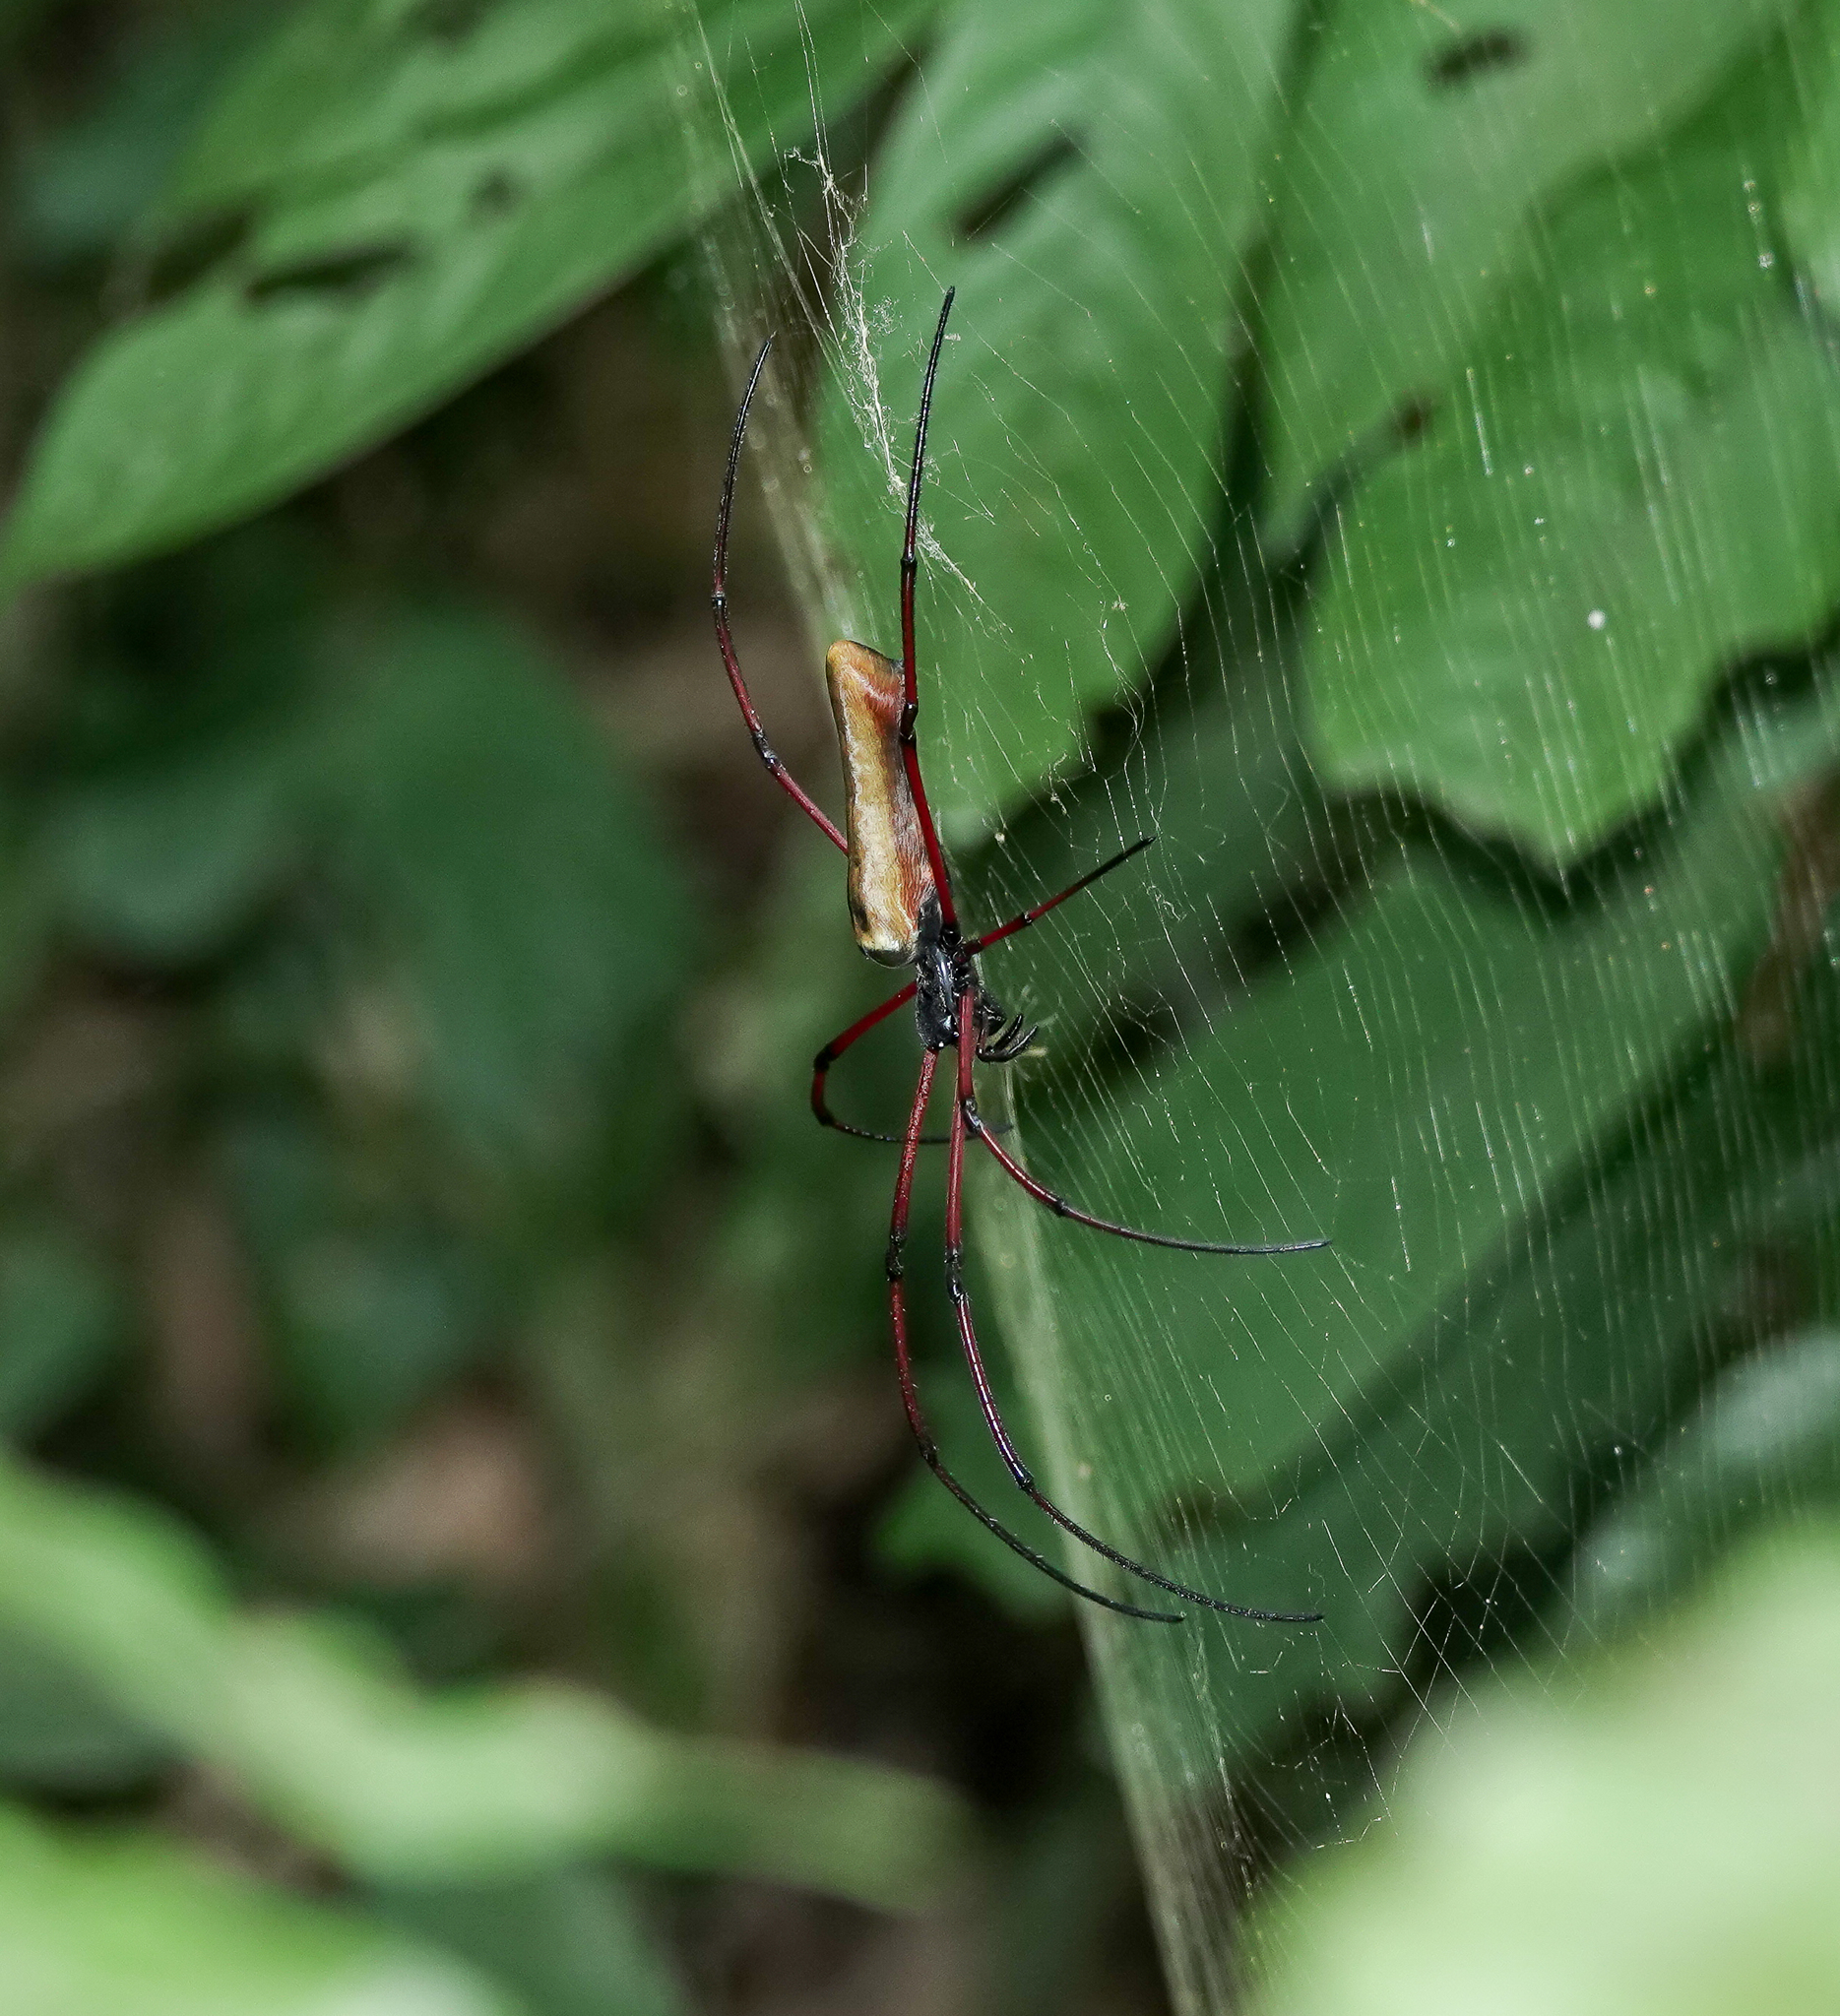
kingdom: Animalia
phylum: Arthropoda
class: Arachnida
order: Araneae
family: Araneidae
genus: Nephila
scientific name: Nephila kuhli
